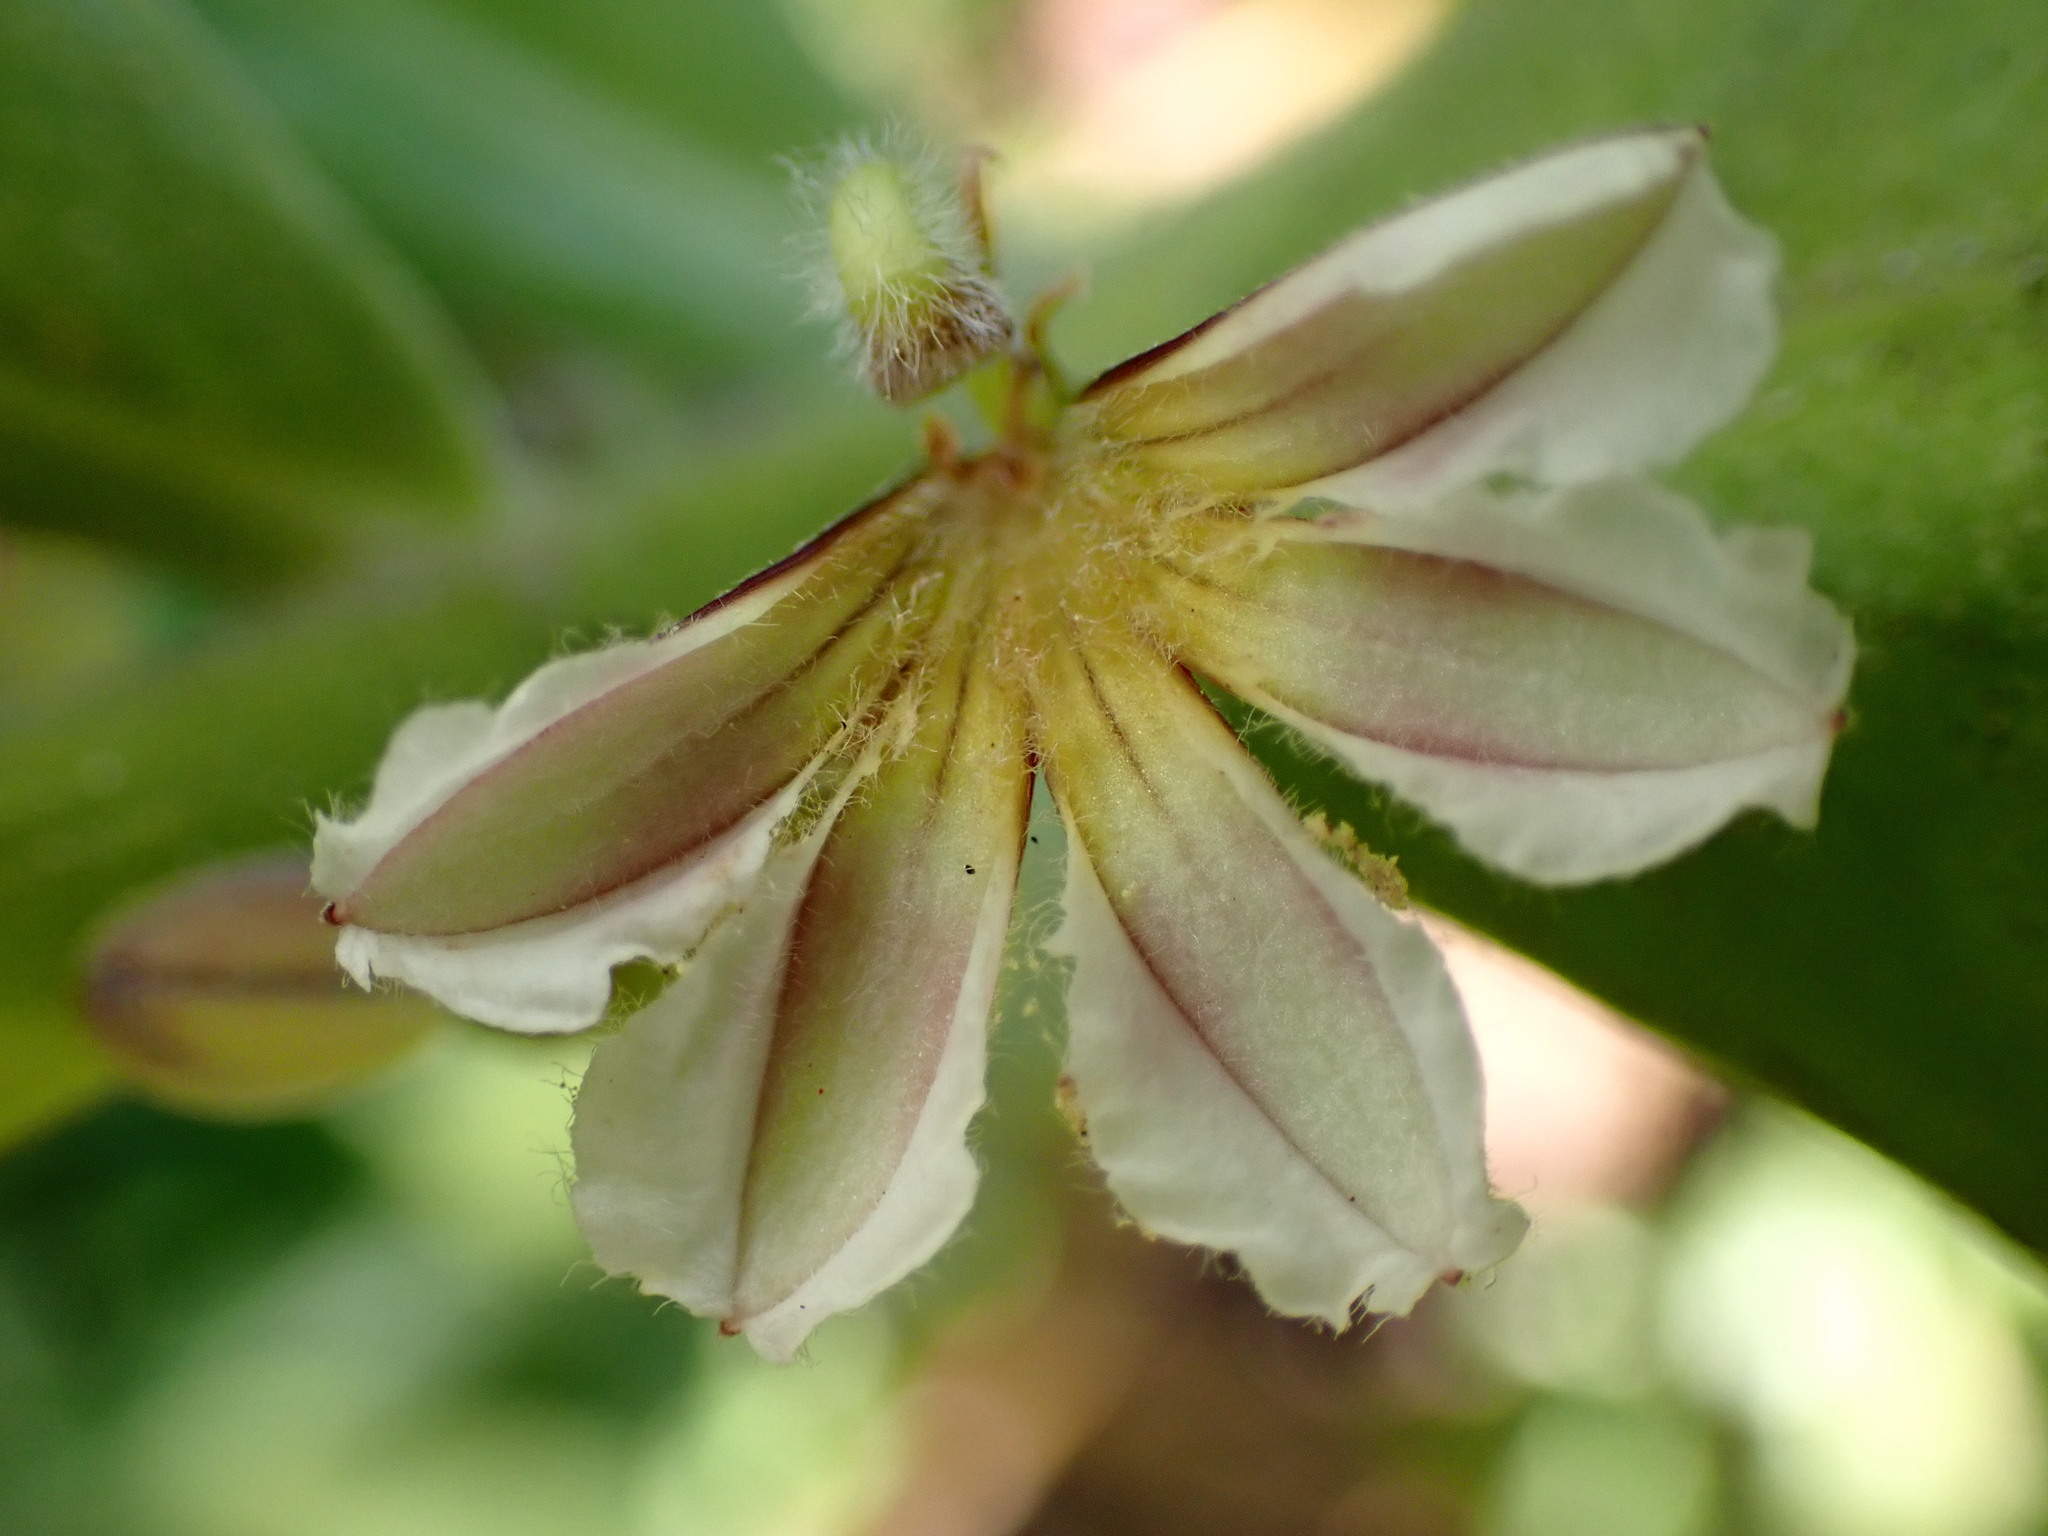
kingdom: Plantae
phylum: Tracheophyta
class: Magnoliopsida
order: Asterales
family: Goodeniaceae
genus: Scaevola
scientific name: Scaevola taccada
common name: Sea lettucetree
